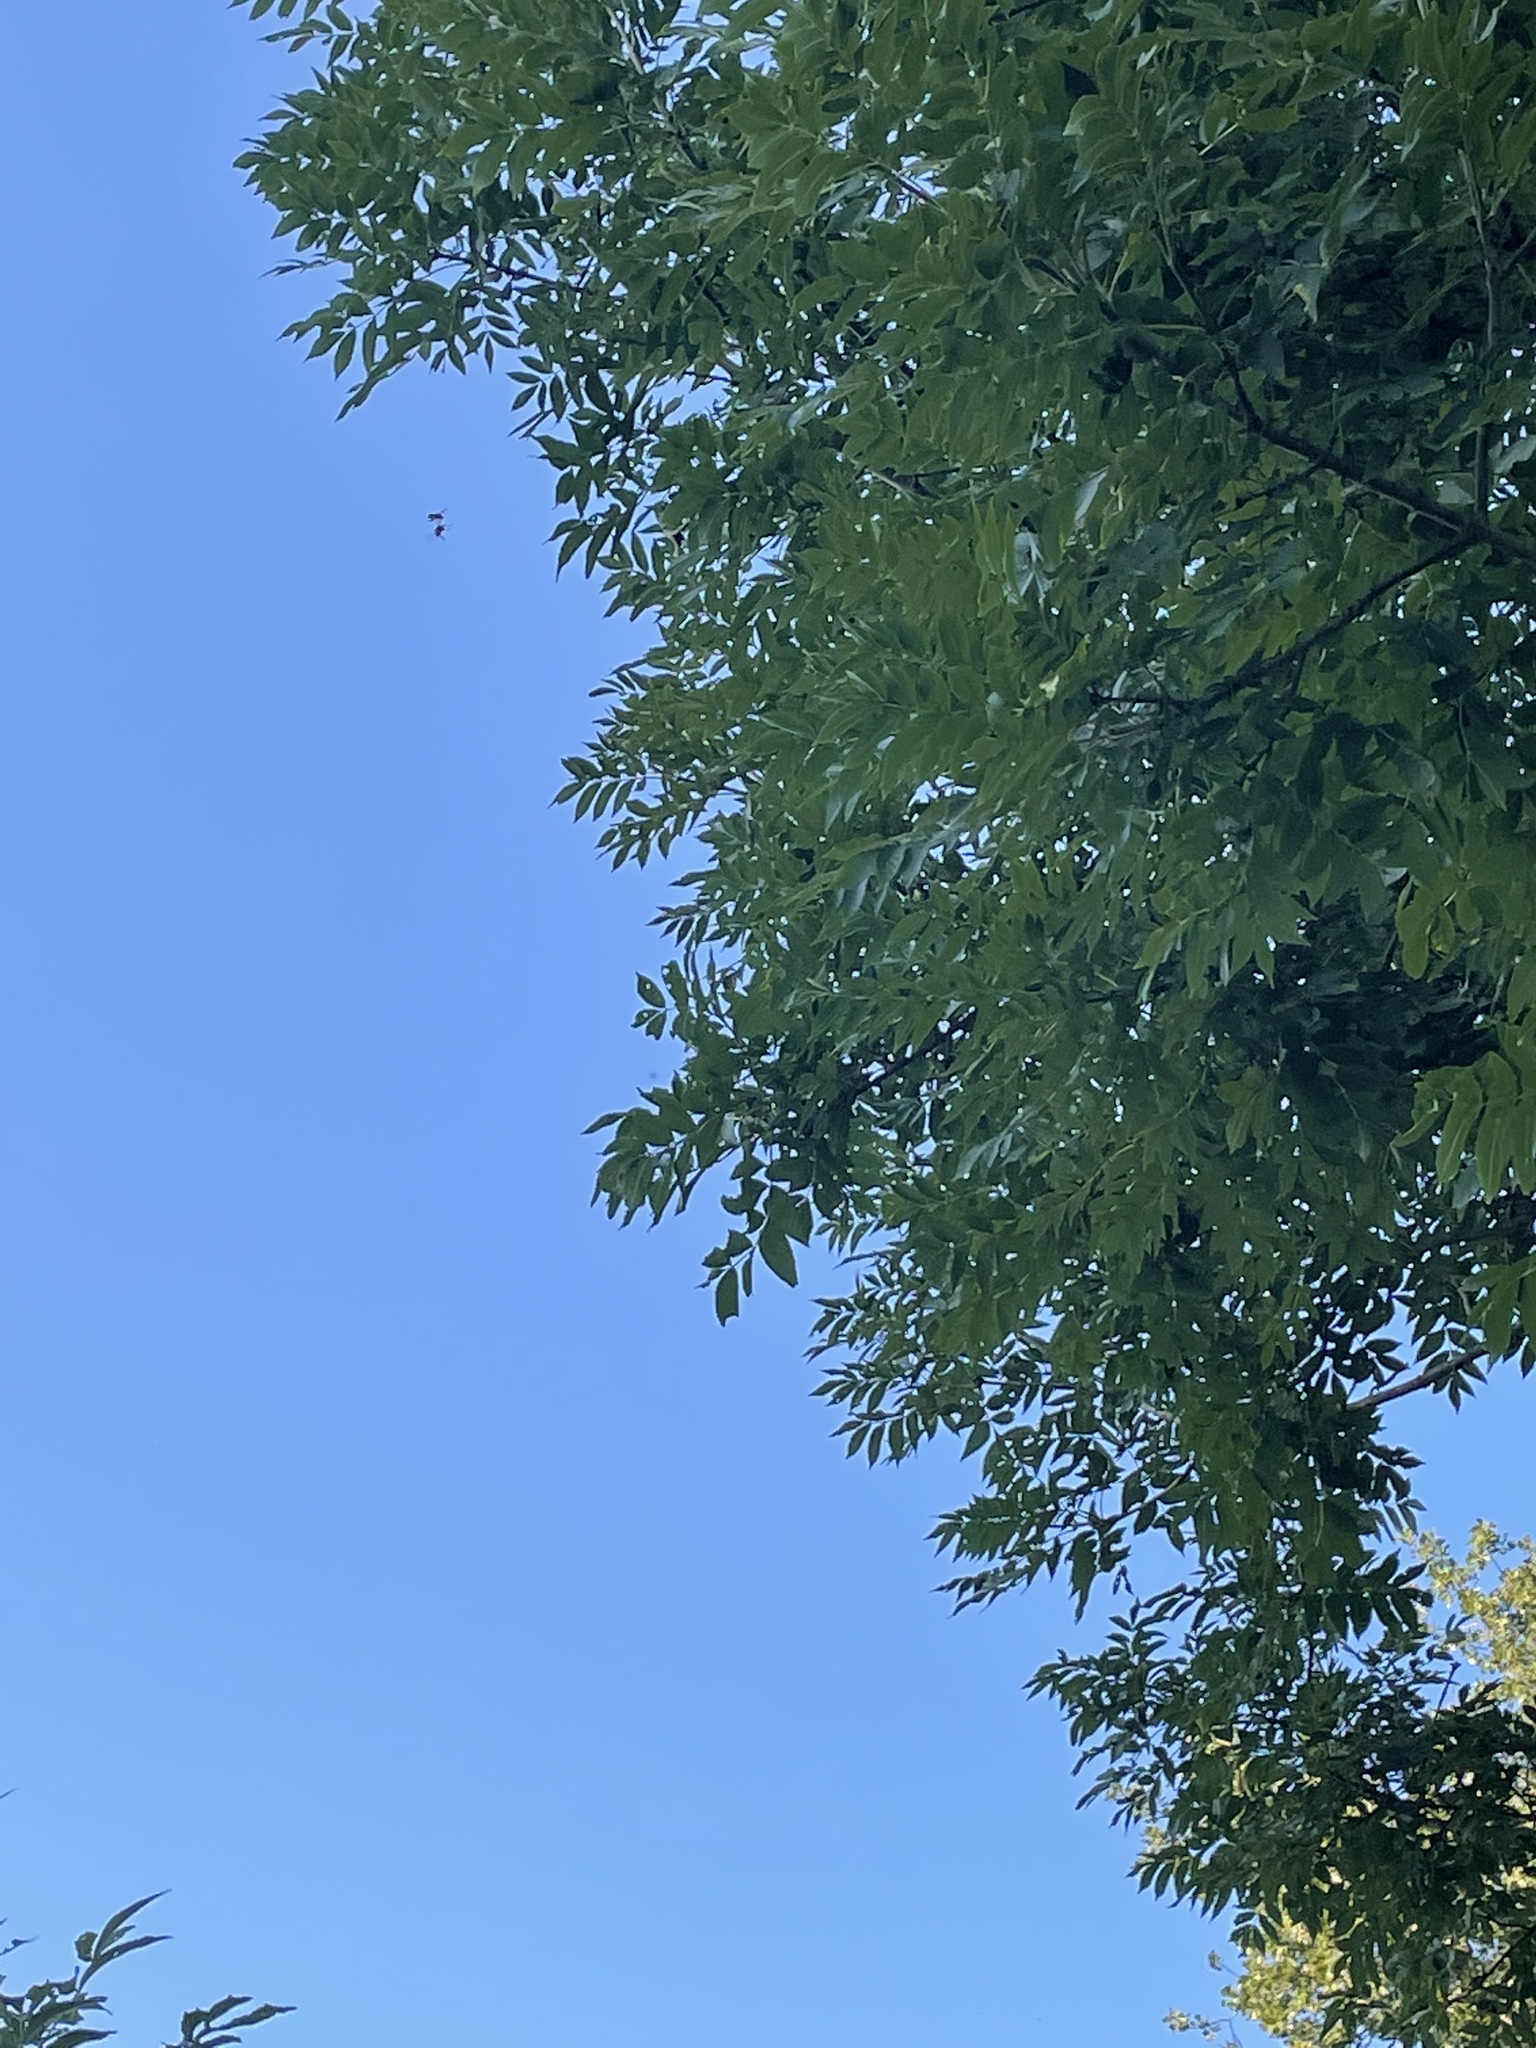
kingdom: Animalia
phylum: Arthropoda
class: Insecta
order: Hymenoptera
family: Vespidae
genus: Vespa
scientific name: Vespa crabro
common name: Hornet
